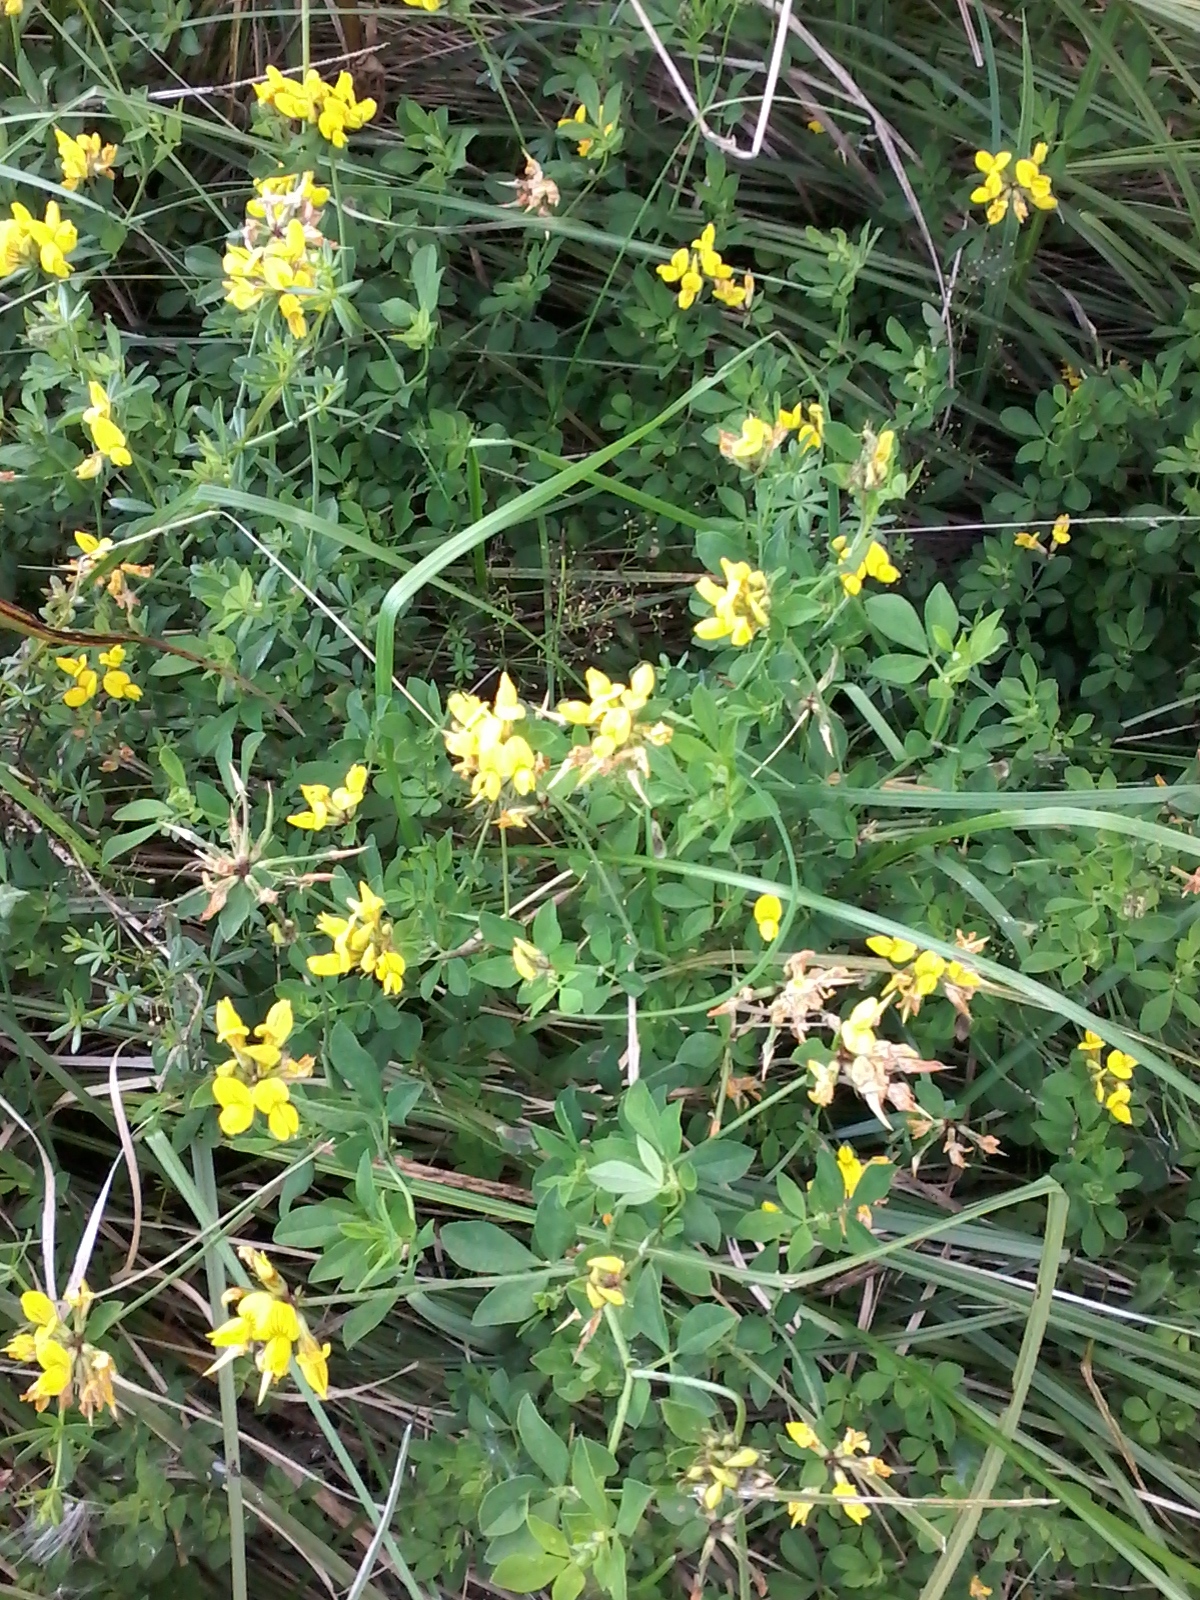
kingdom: Plantae
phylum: Tracheophyta
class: Magnoliopsida
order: Fabales
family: Fabaceae
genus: Lotus
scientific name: Lotus corniculatus
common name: Common bird's-foot-trefoil
